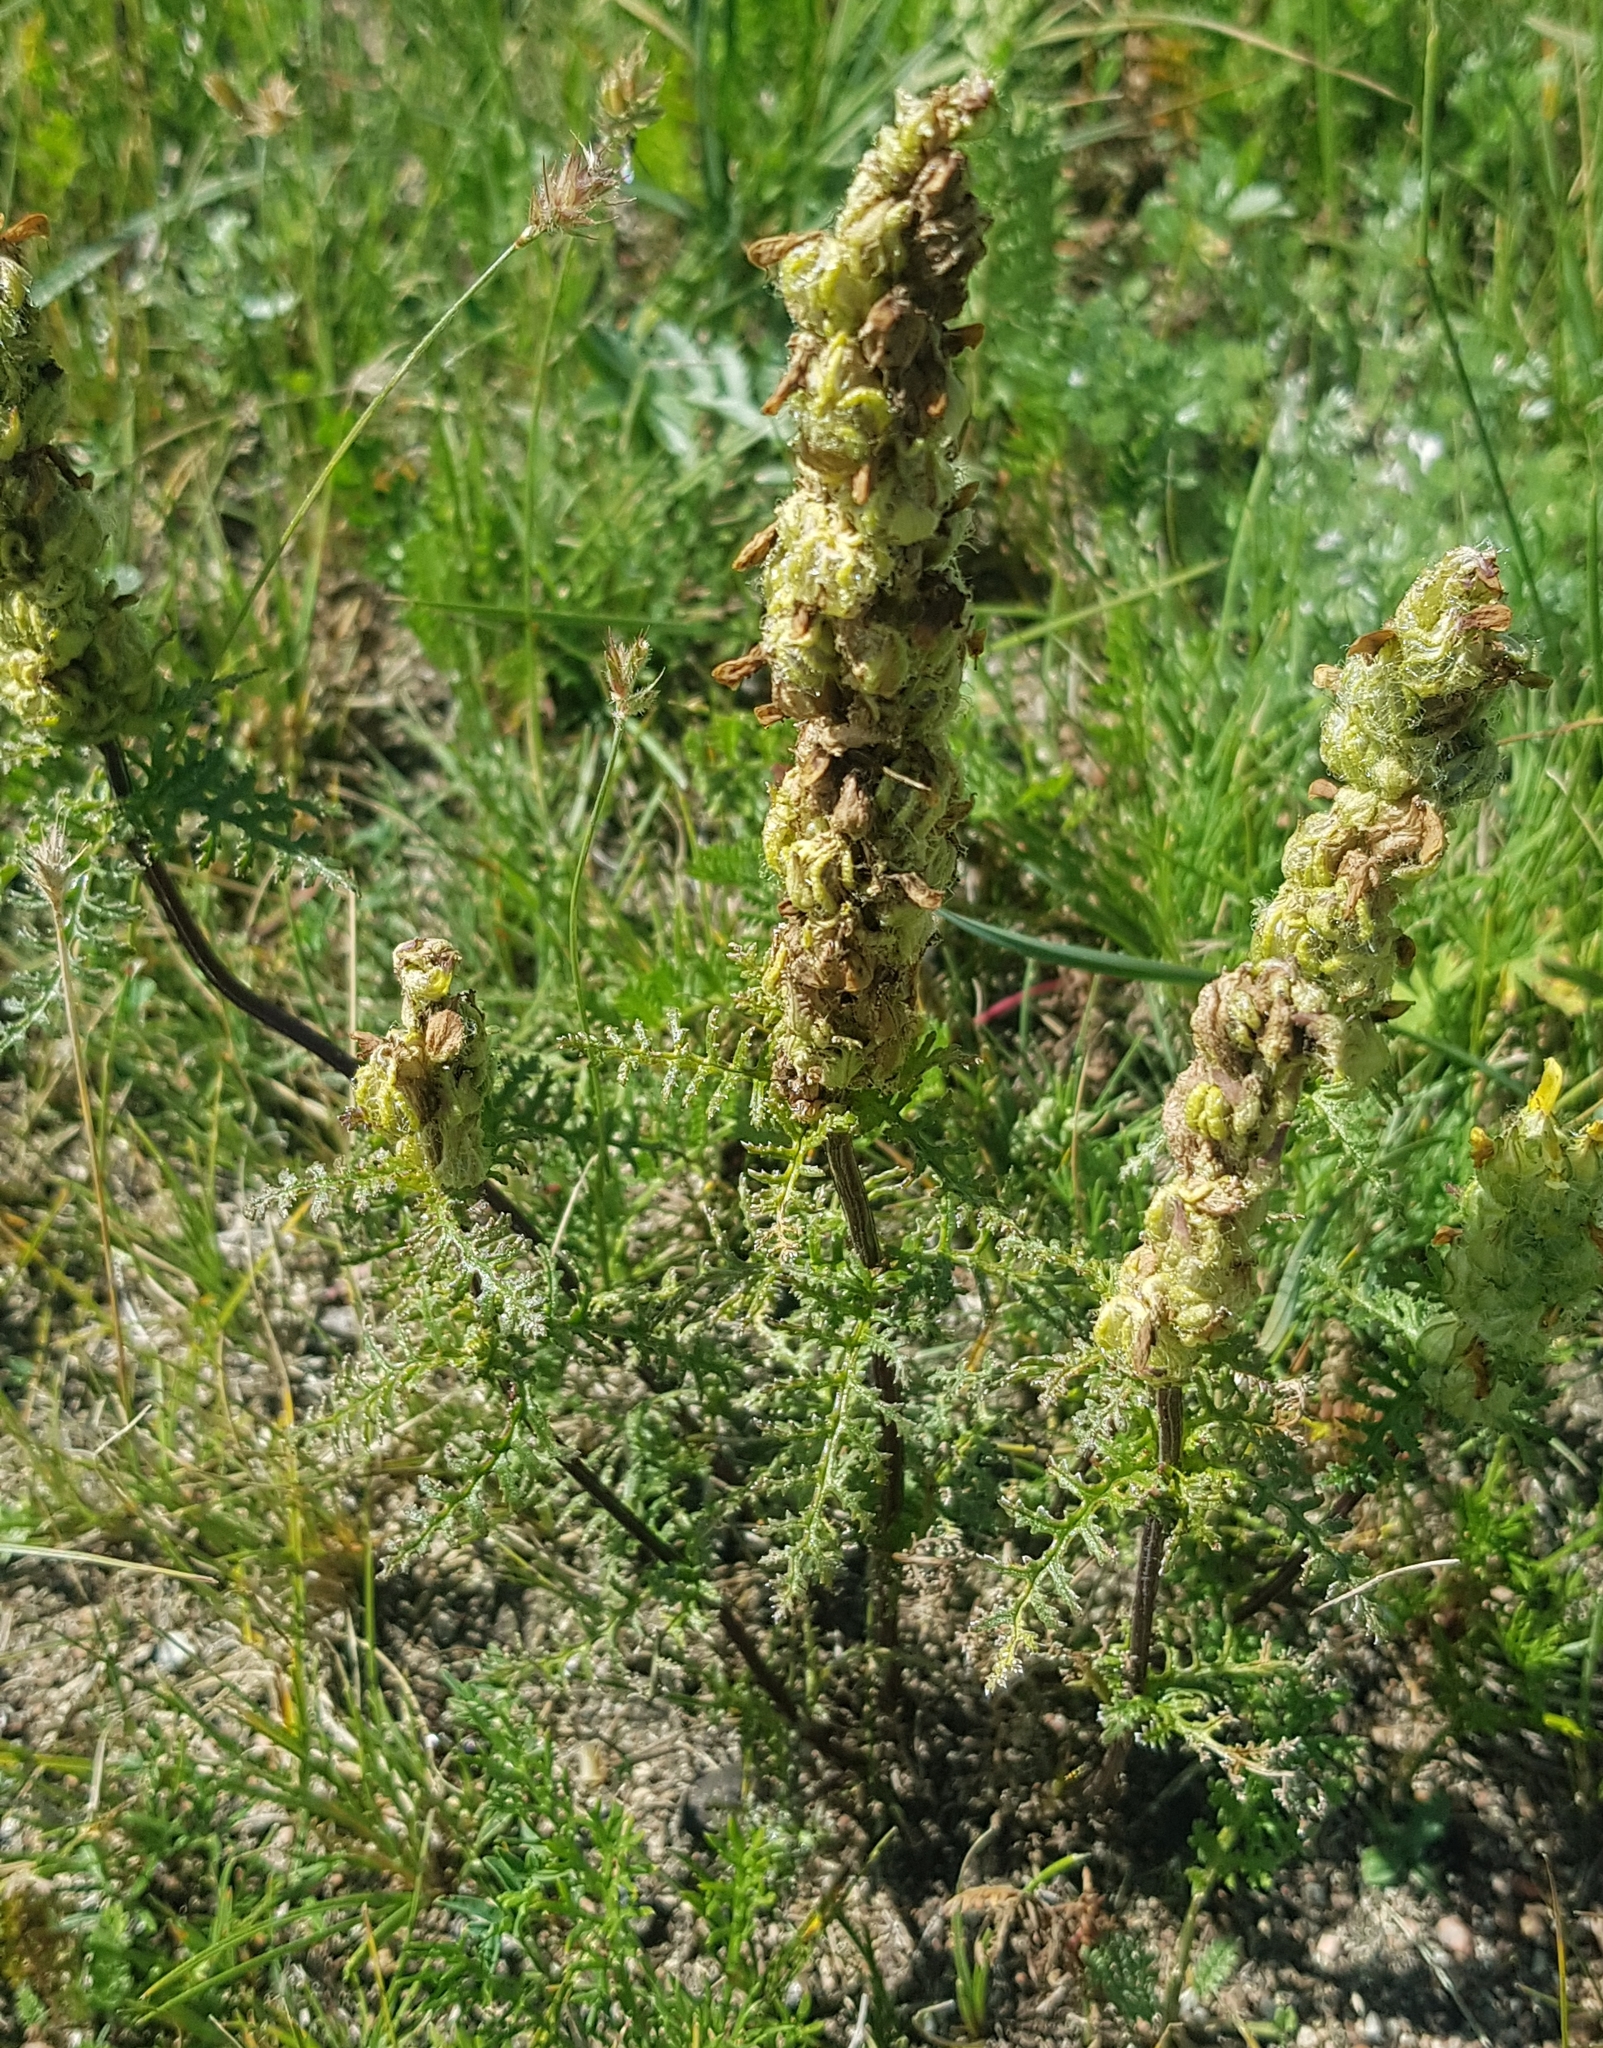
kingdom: Plantae
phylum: Tracheophyta
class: Magnoliopsida
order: Lamiales
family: Orobanchaceae
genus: Pedicularis
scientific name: Pedicularis myriophylla
